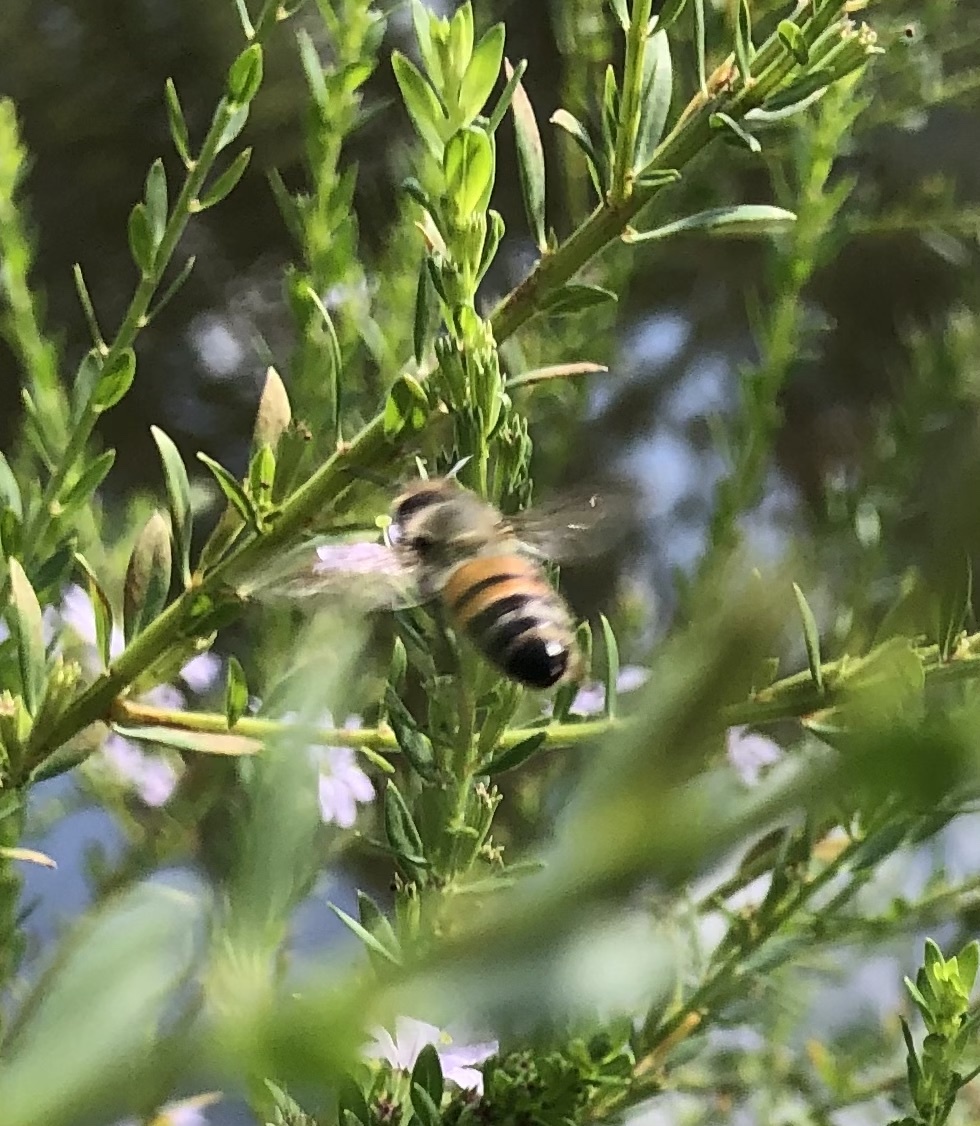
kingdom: Animalia
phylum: Arthropoda
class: Insecta
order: Hymenoptera
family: Apidae
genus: Apis
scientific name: Apis mellifera
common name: Honey bee
